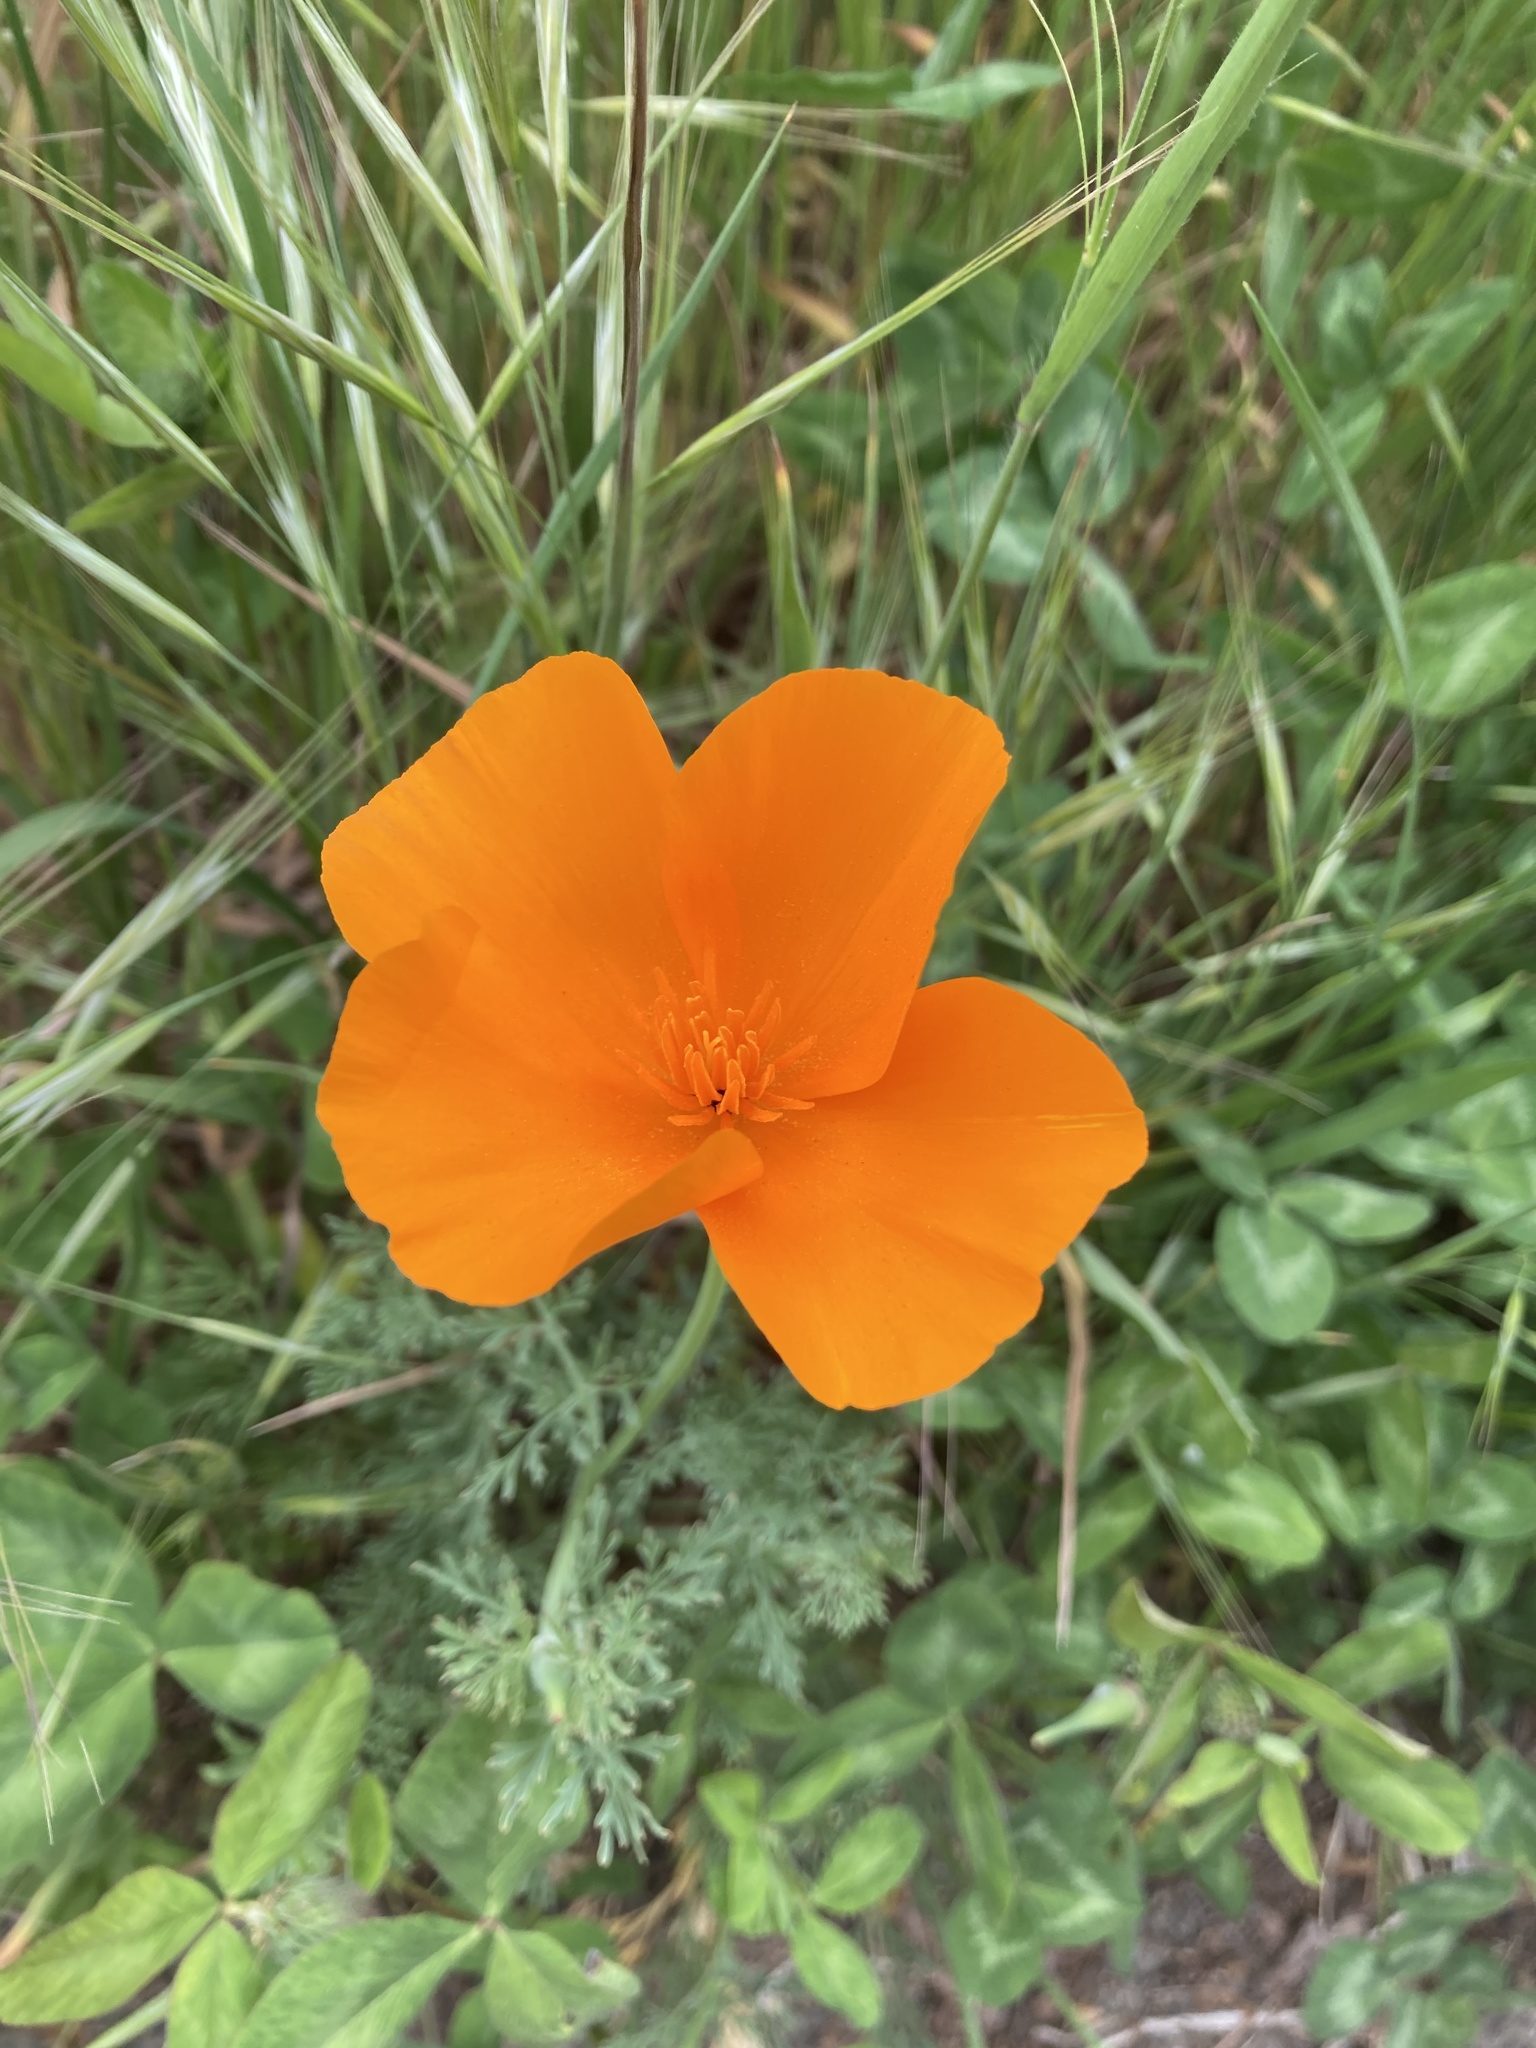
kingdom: Plantae
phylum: Tracheophyta
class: Magnoliopsida
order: Ranunculales
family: Papaveraceae
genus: Eschscholzia
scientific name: Eschscholzia californica
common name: California poppy
